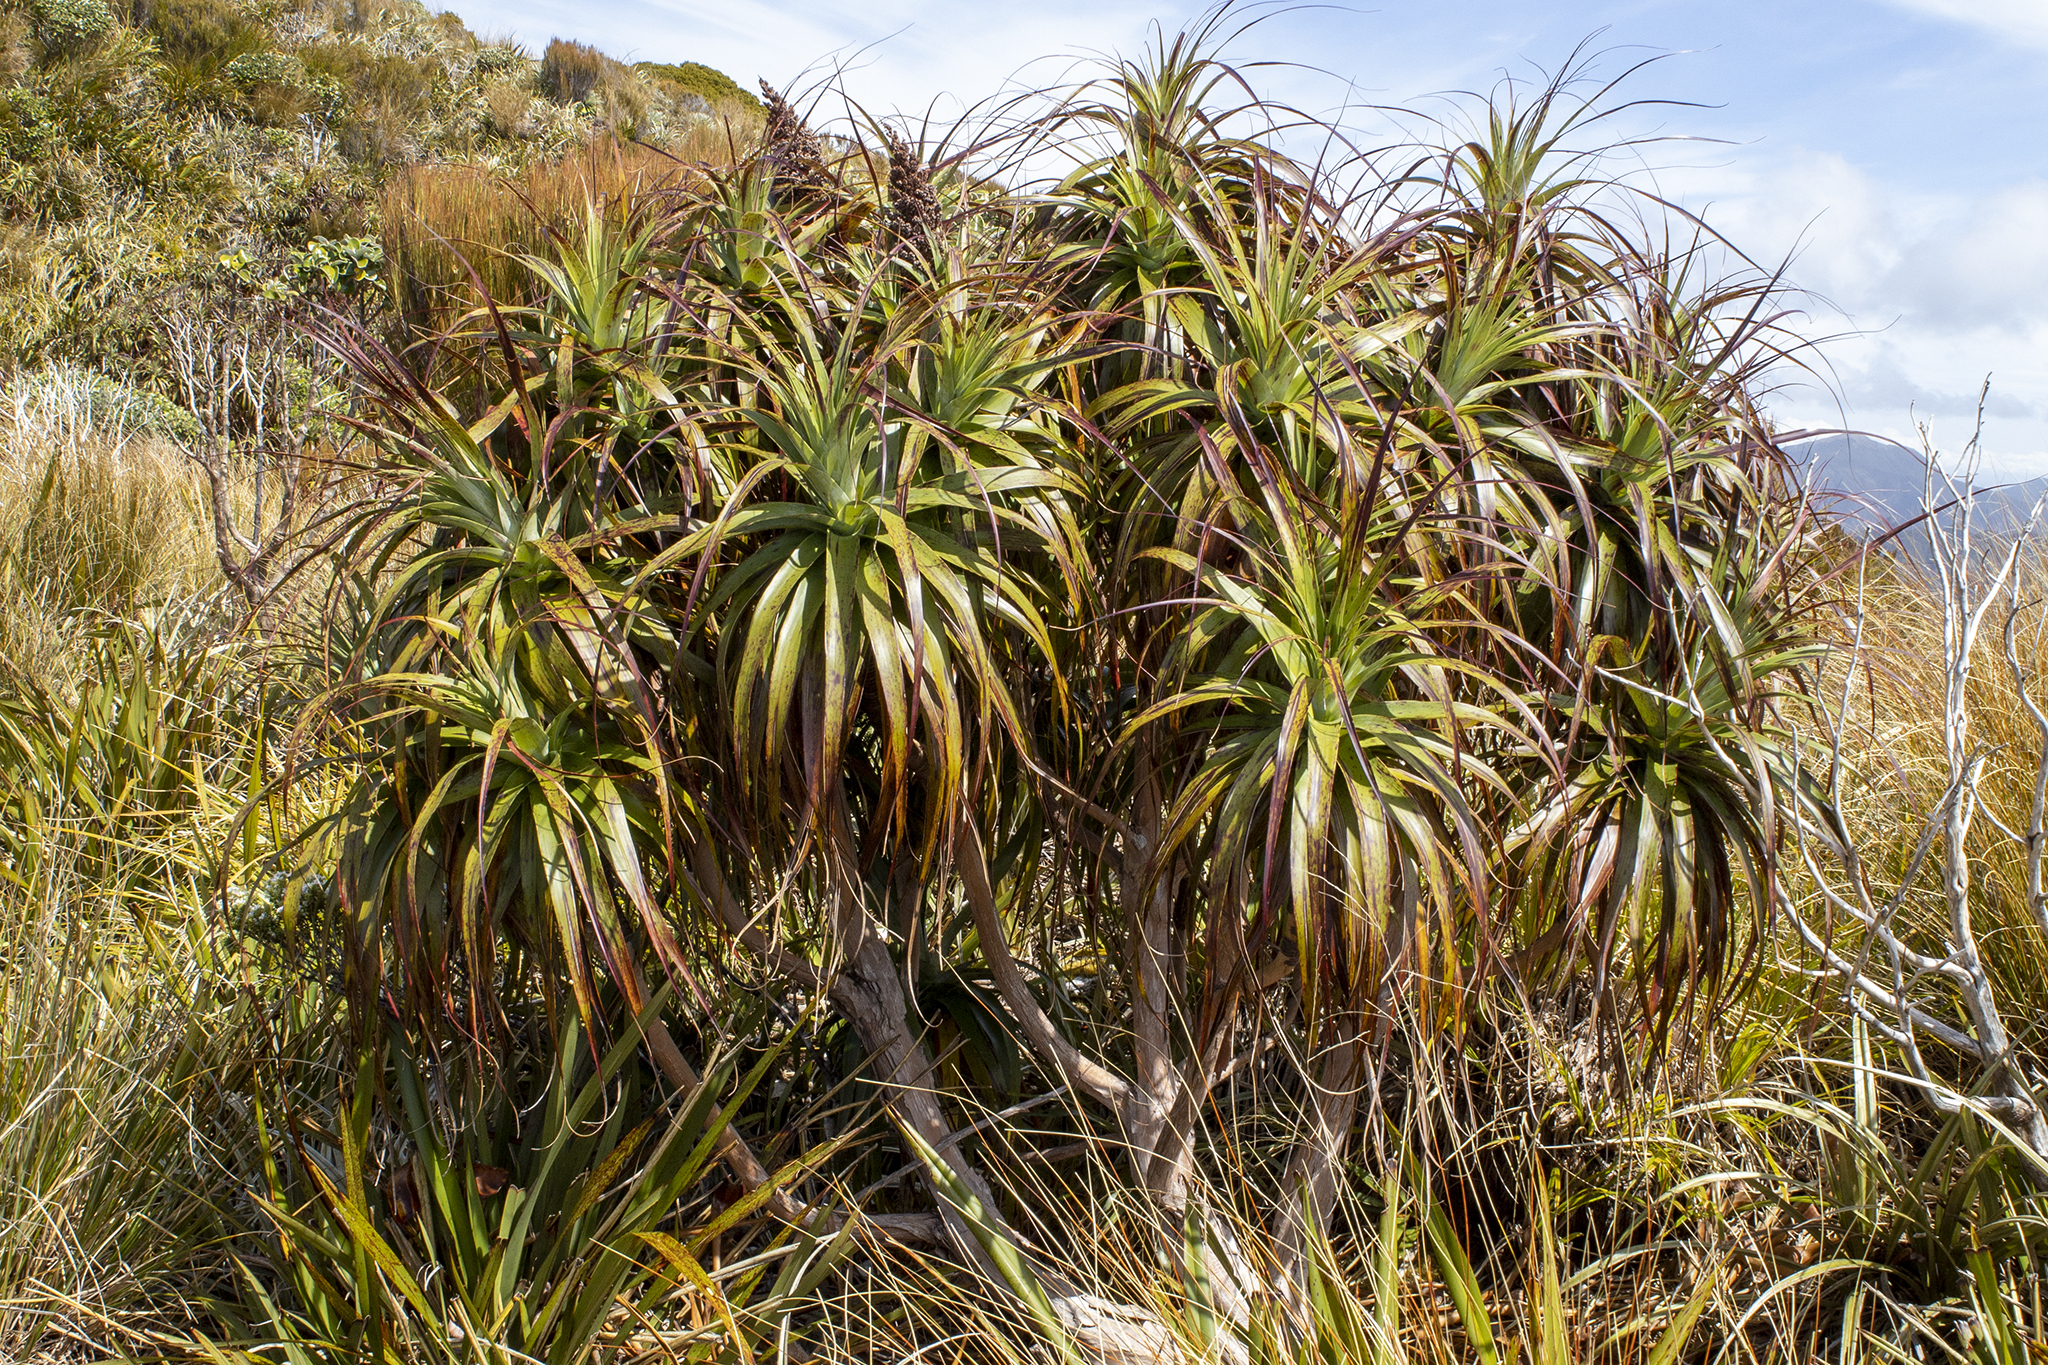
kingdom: Plantae
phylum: Tracheophyta
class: Magnoliopsida
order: Ericales
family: Ericaceae
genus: Dracophyllum
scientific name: Dracophyllum traversii
